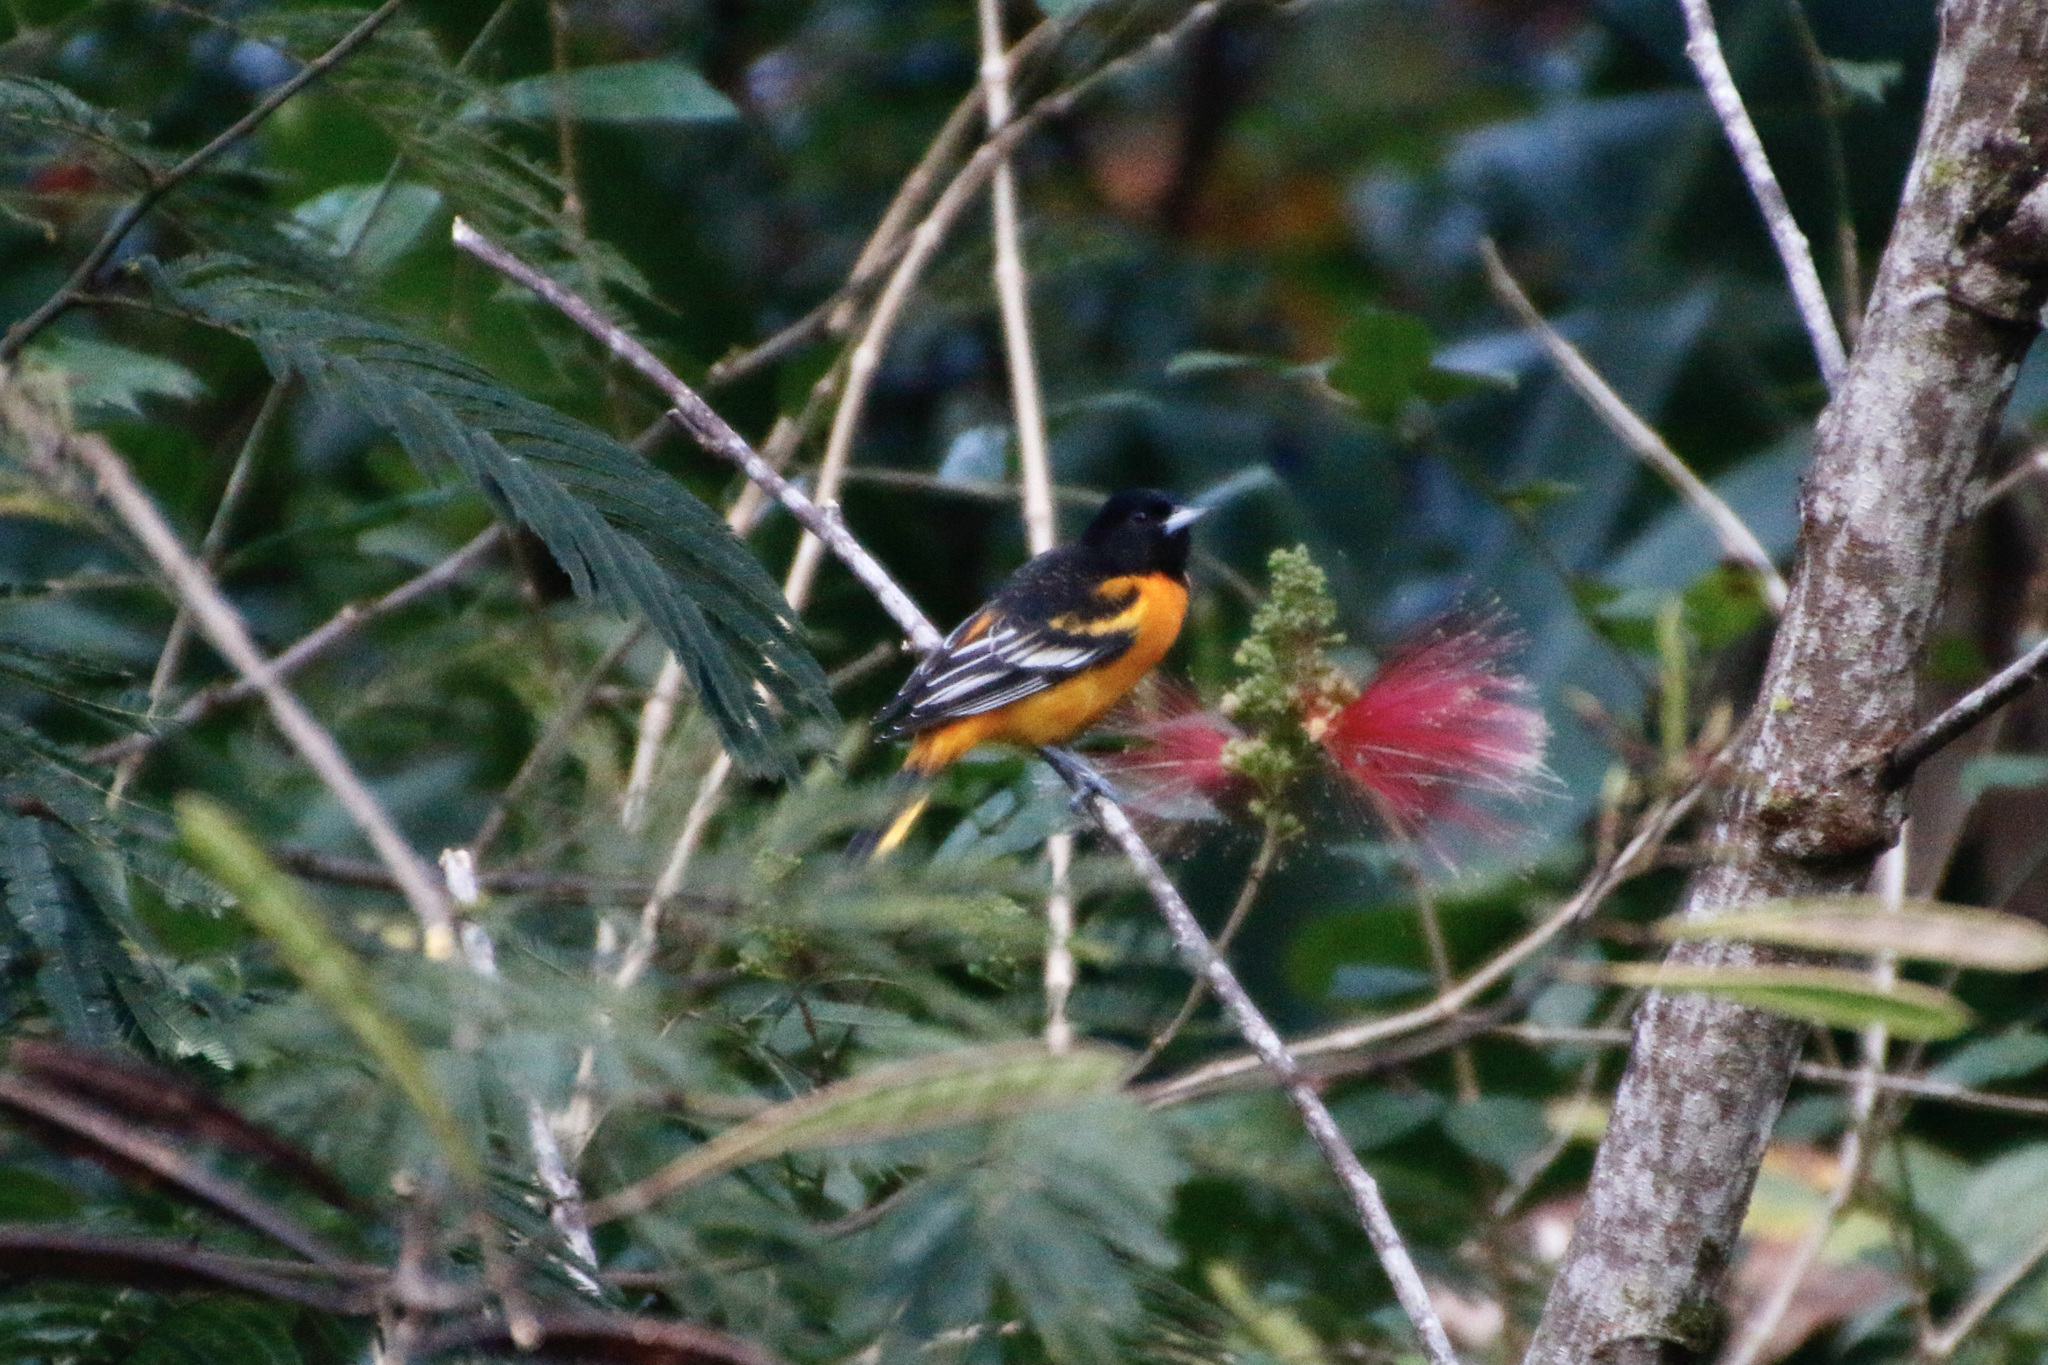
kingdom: Animalia
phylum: Chordata
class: Aves
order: Passeriformes
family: Icteridae
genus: Icterus
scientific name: Icterus galbula
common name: Baltimore oriole
